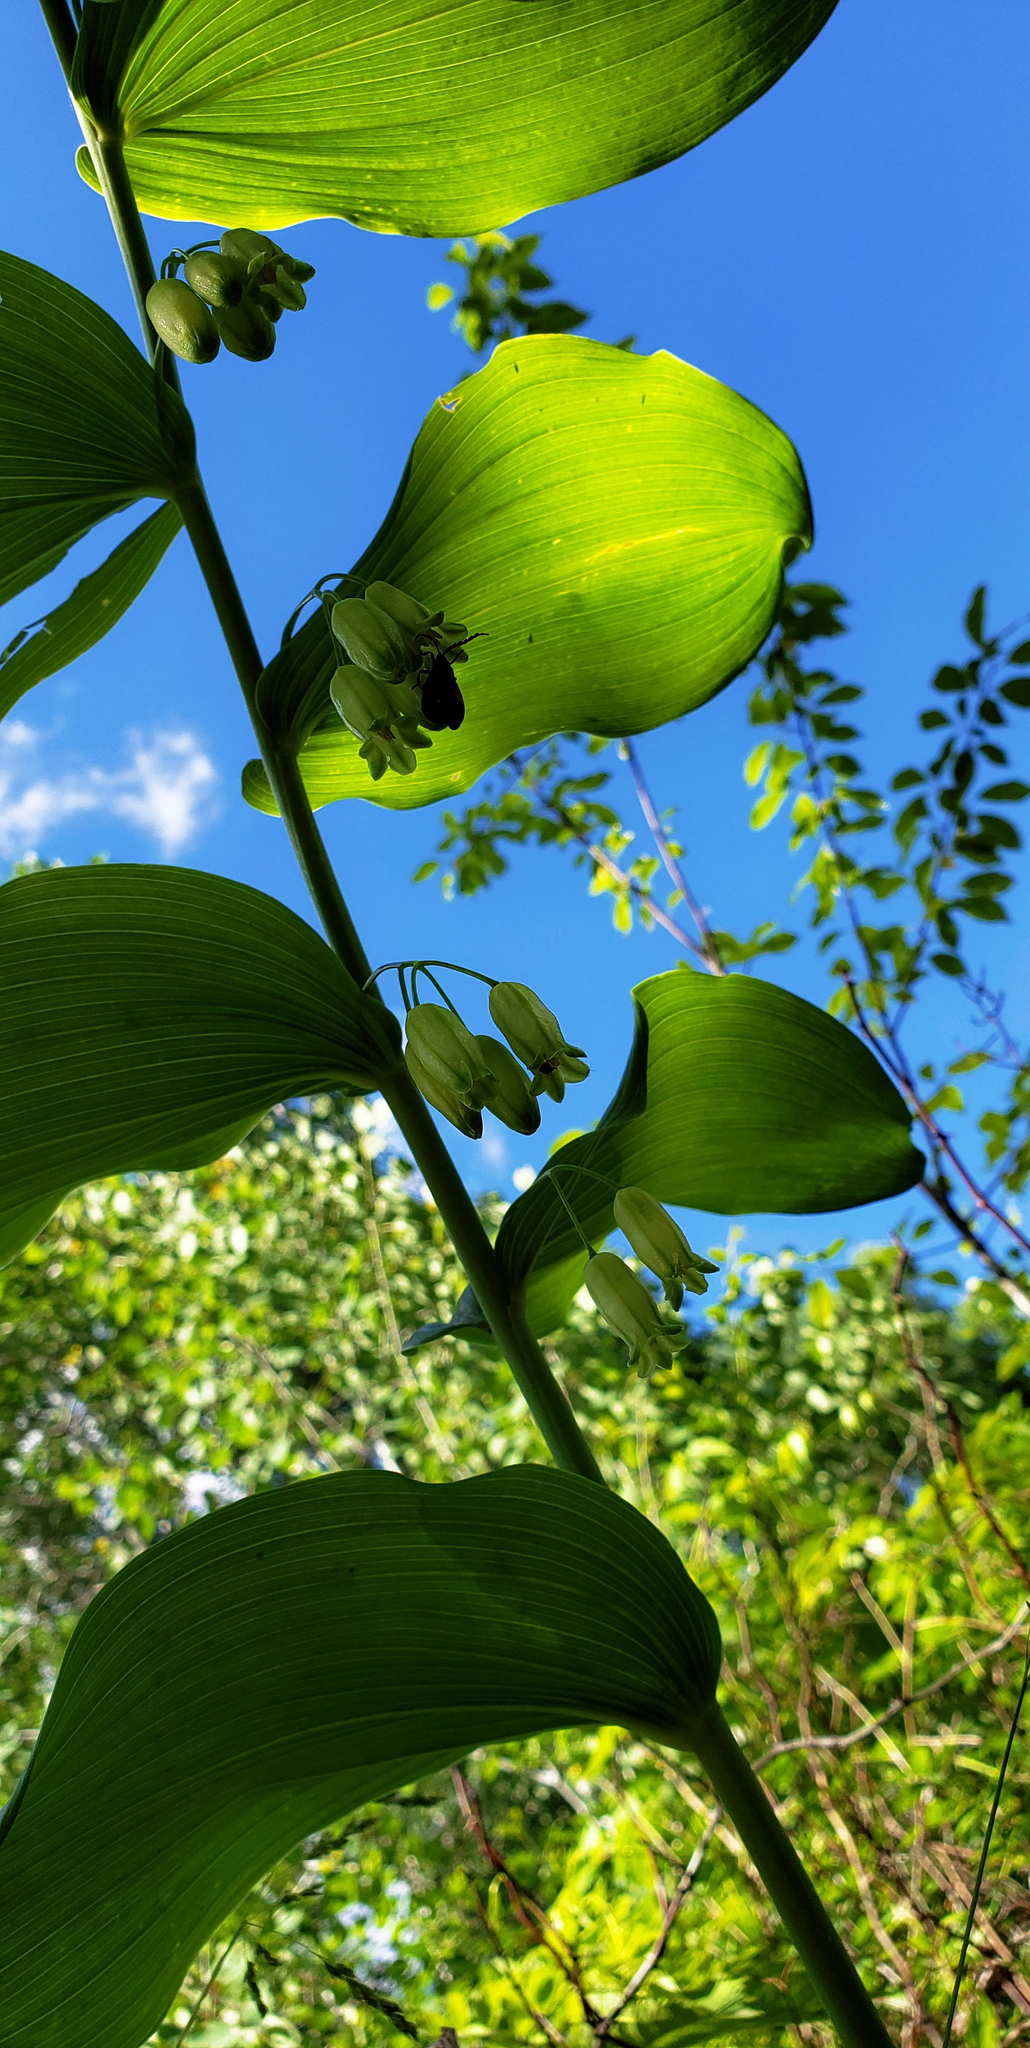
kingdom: Plantae
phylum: Tracheophyta
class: Liliopsida
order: Asparagales
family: Asparagaceae
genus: Polygonatum
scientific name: Polygonatum biflorum
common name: American solomon's-seal
